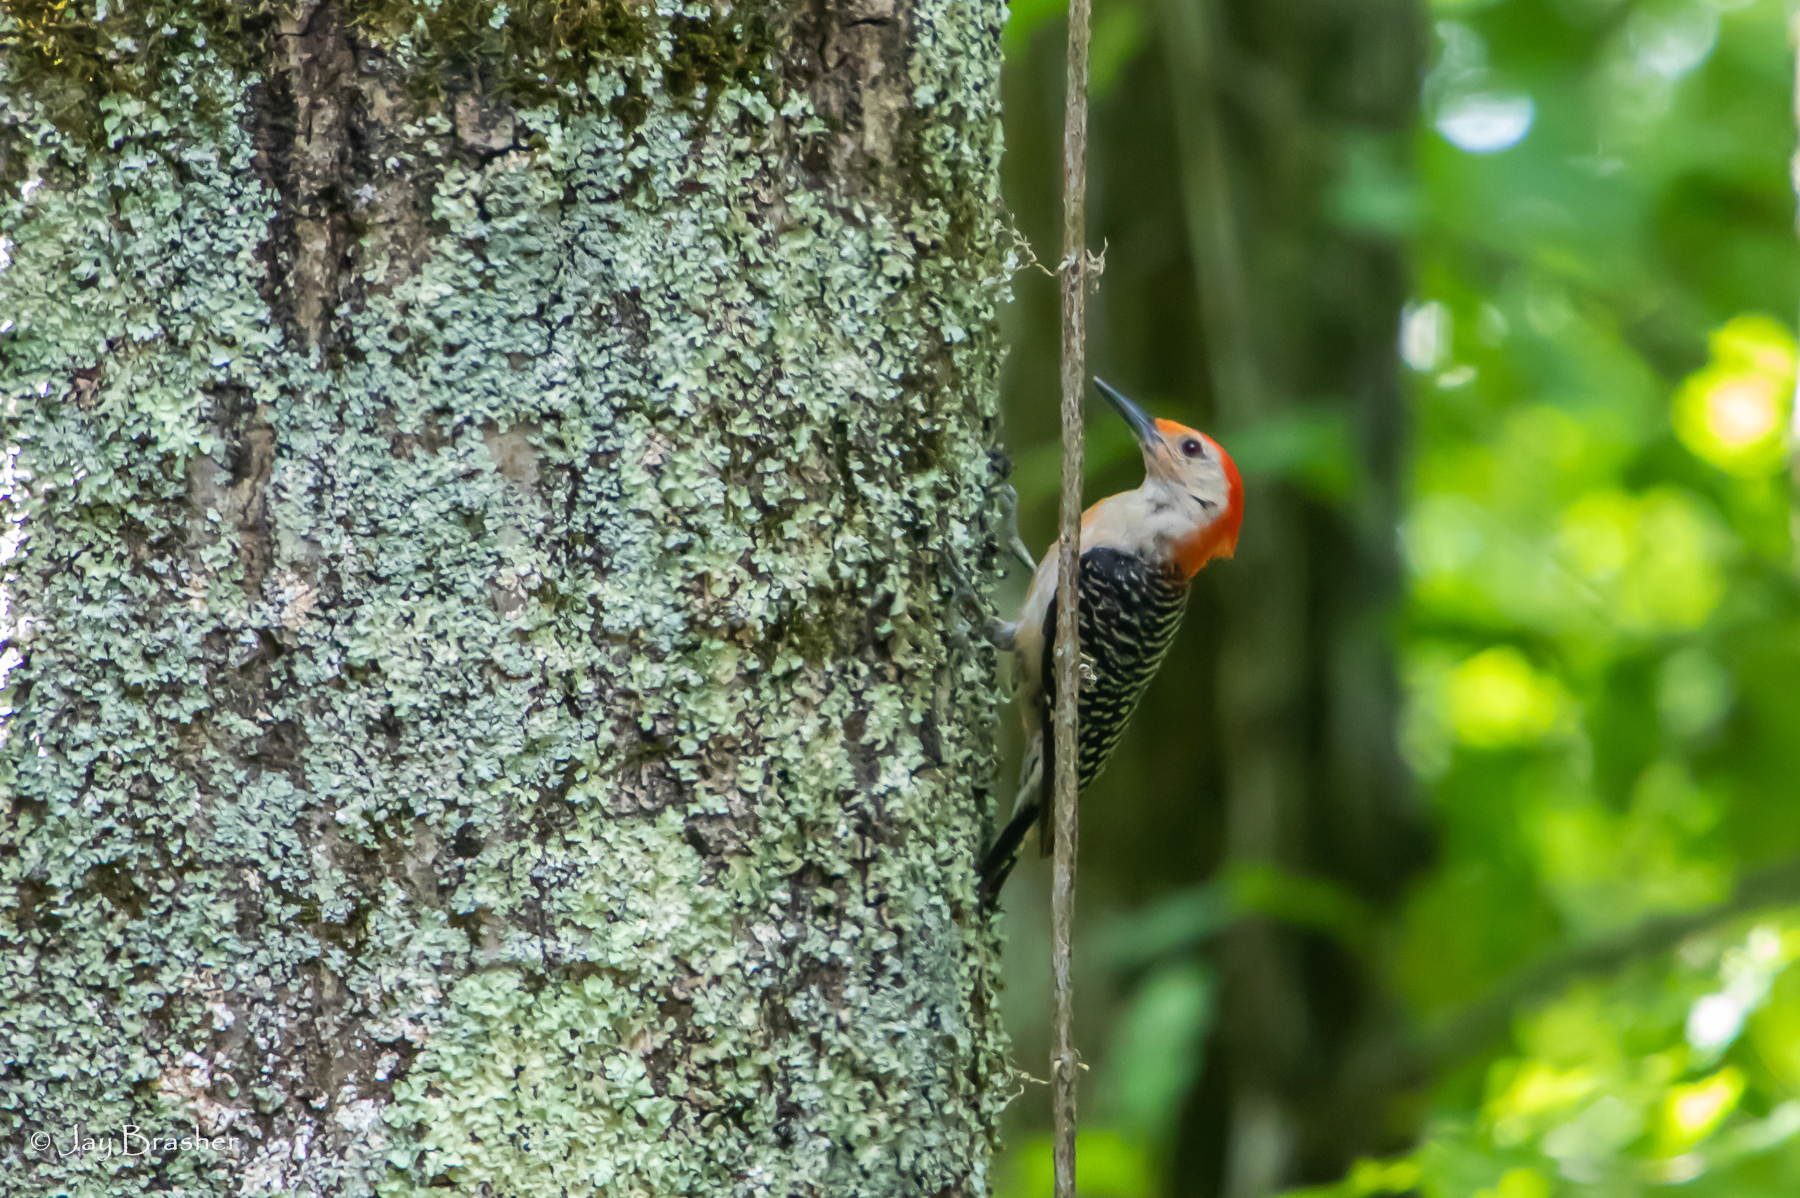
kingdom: Animalia
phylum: Chordata
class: Aves
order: Piciformes
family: Picidae
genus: Melanerpes
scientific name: Melanerpes carolinus
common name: Red-bellied woodpecker
